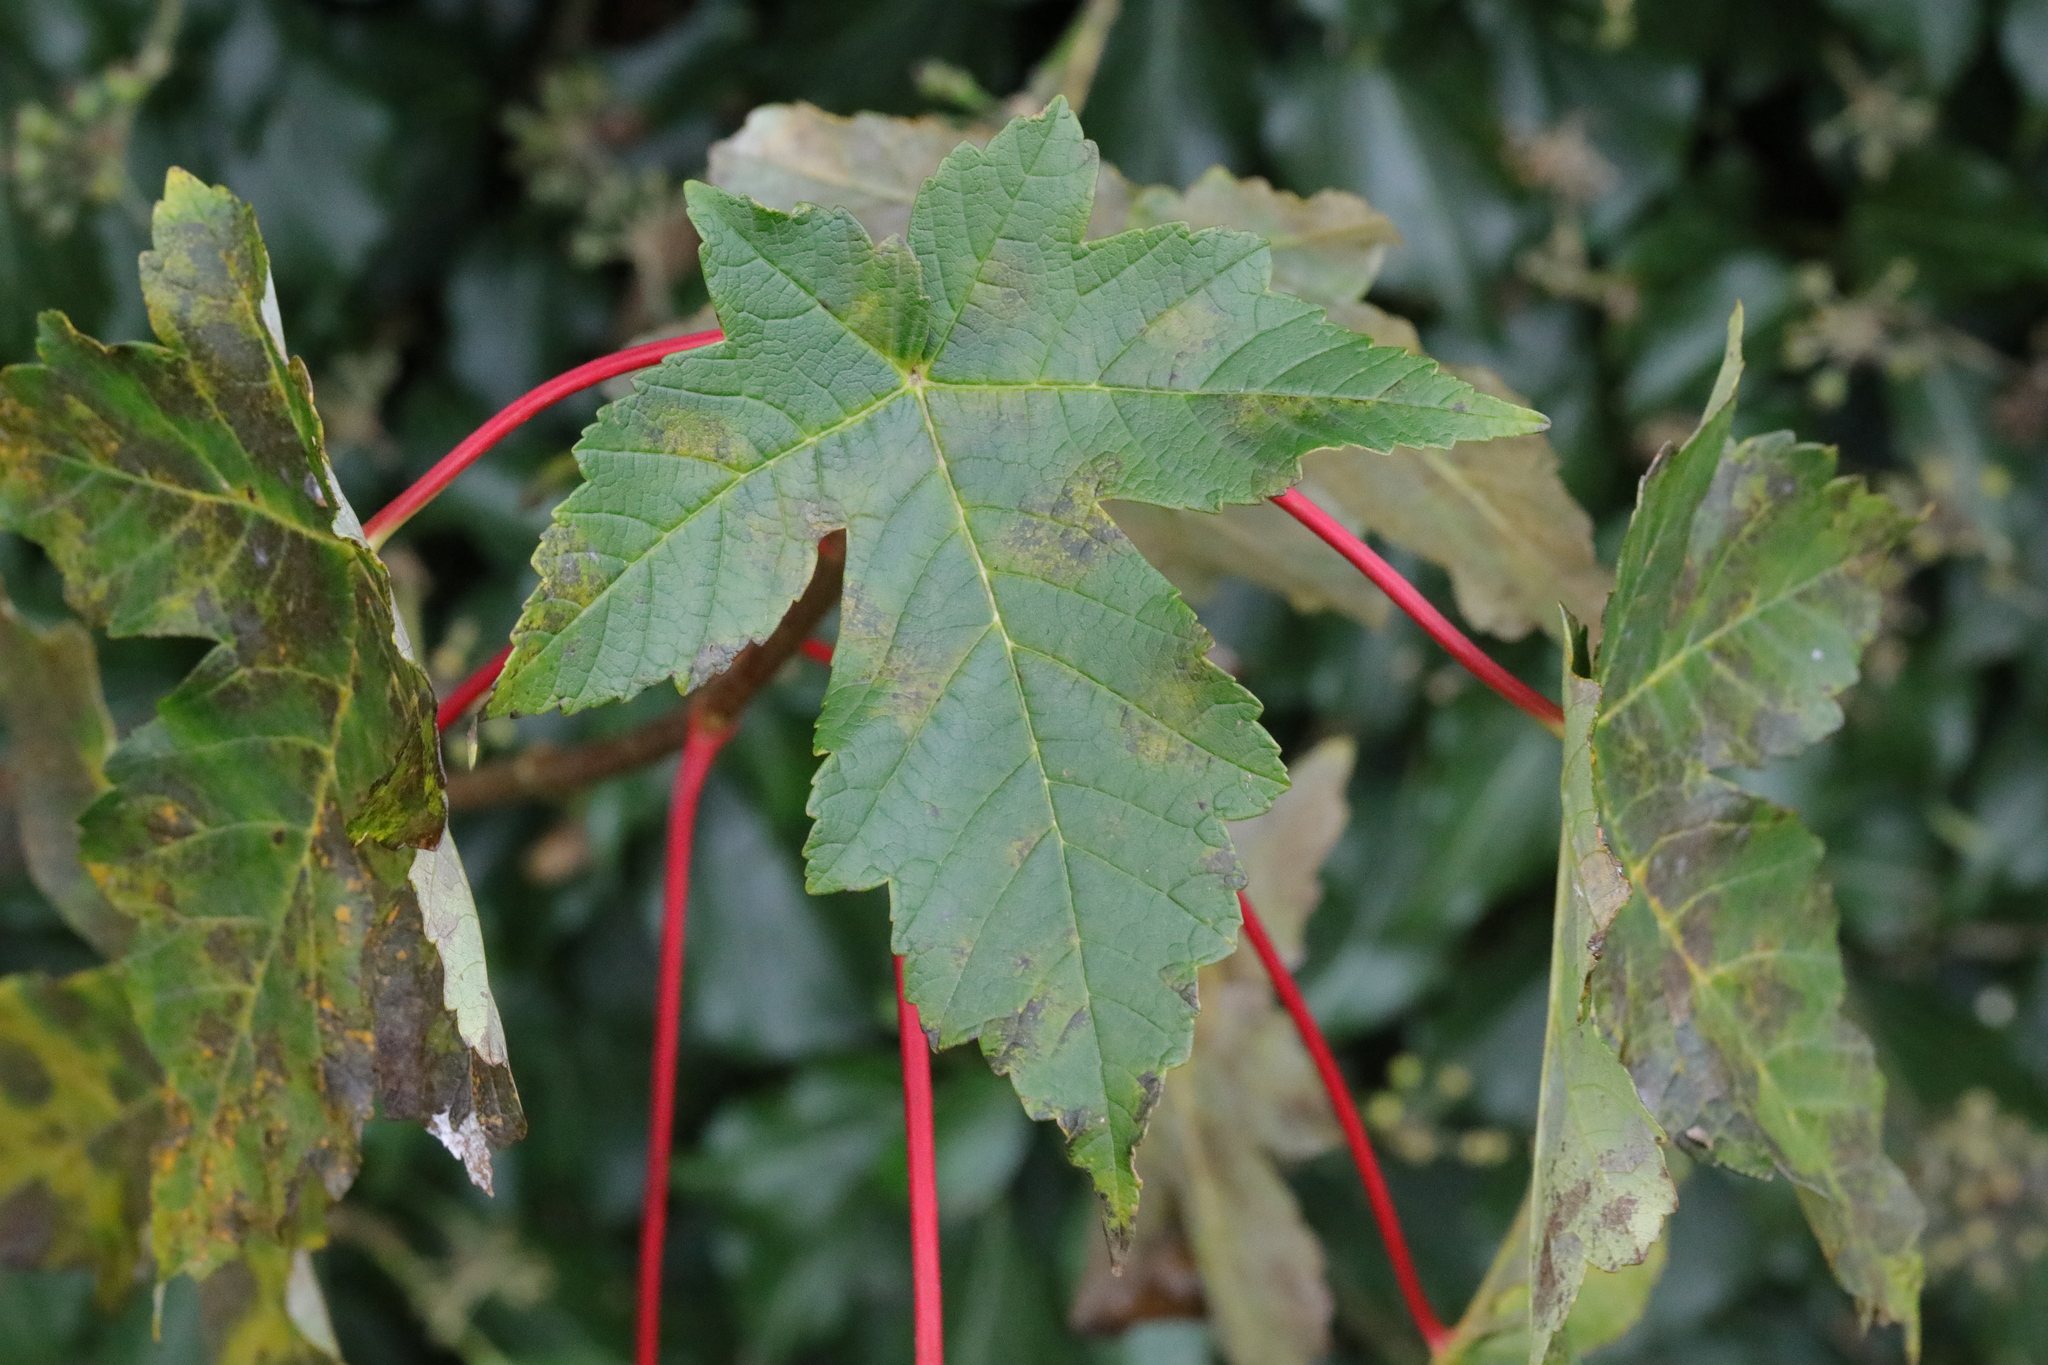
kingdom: Plantae
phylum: Tracheophyta
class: Magnoliopsida
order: Sapindales
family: Sapindaceae
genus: Acer
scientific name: Acer pseudoplatanus
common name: Sycamore
